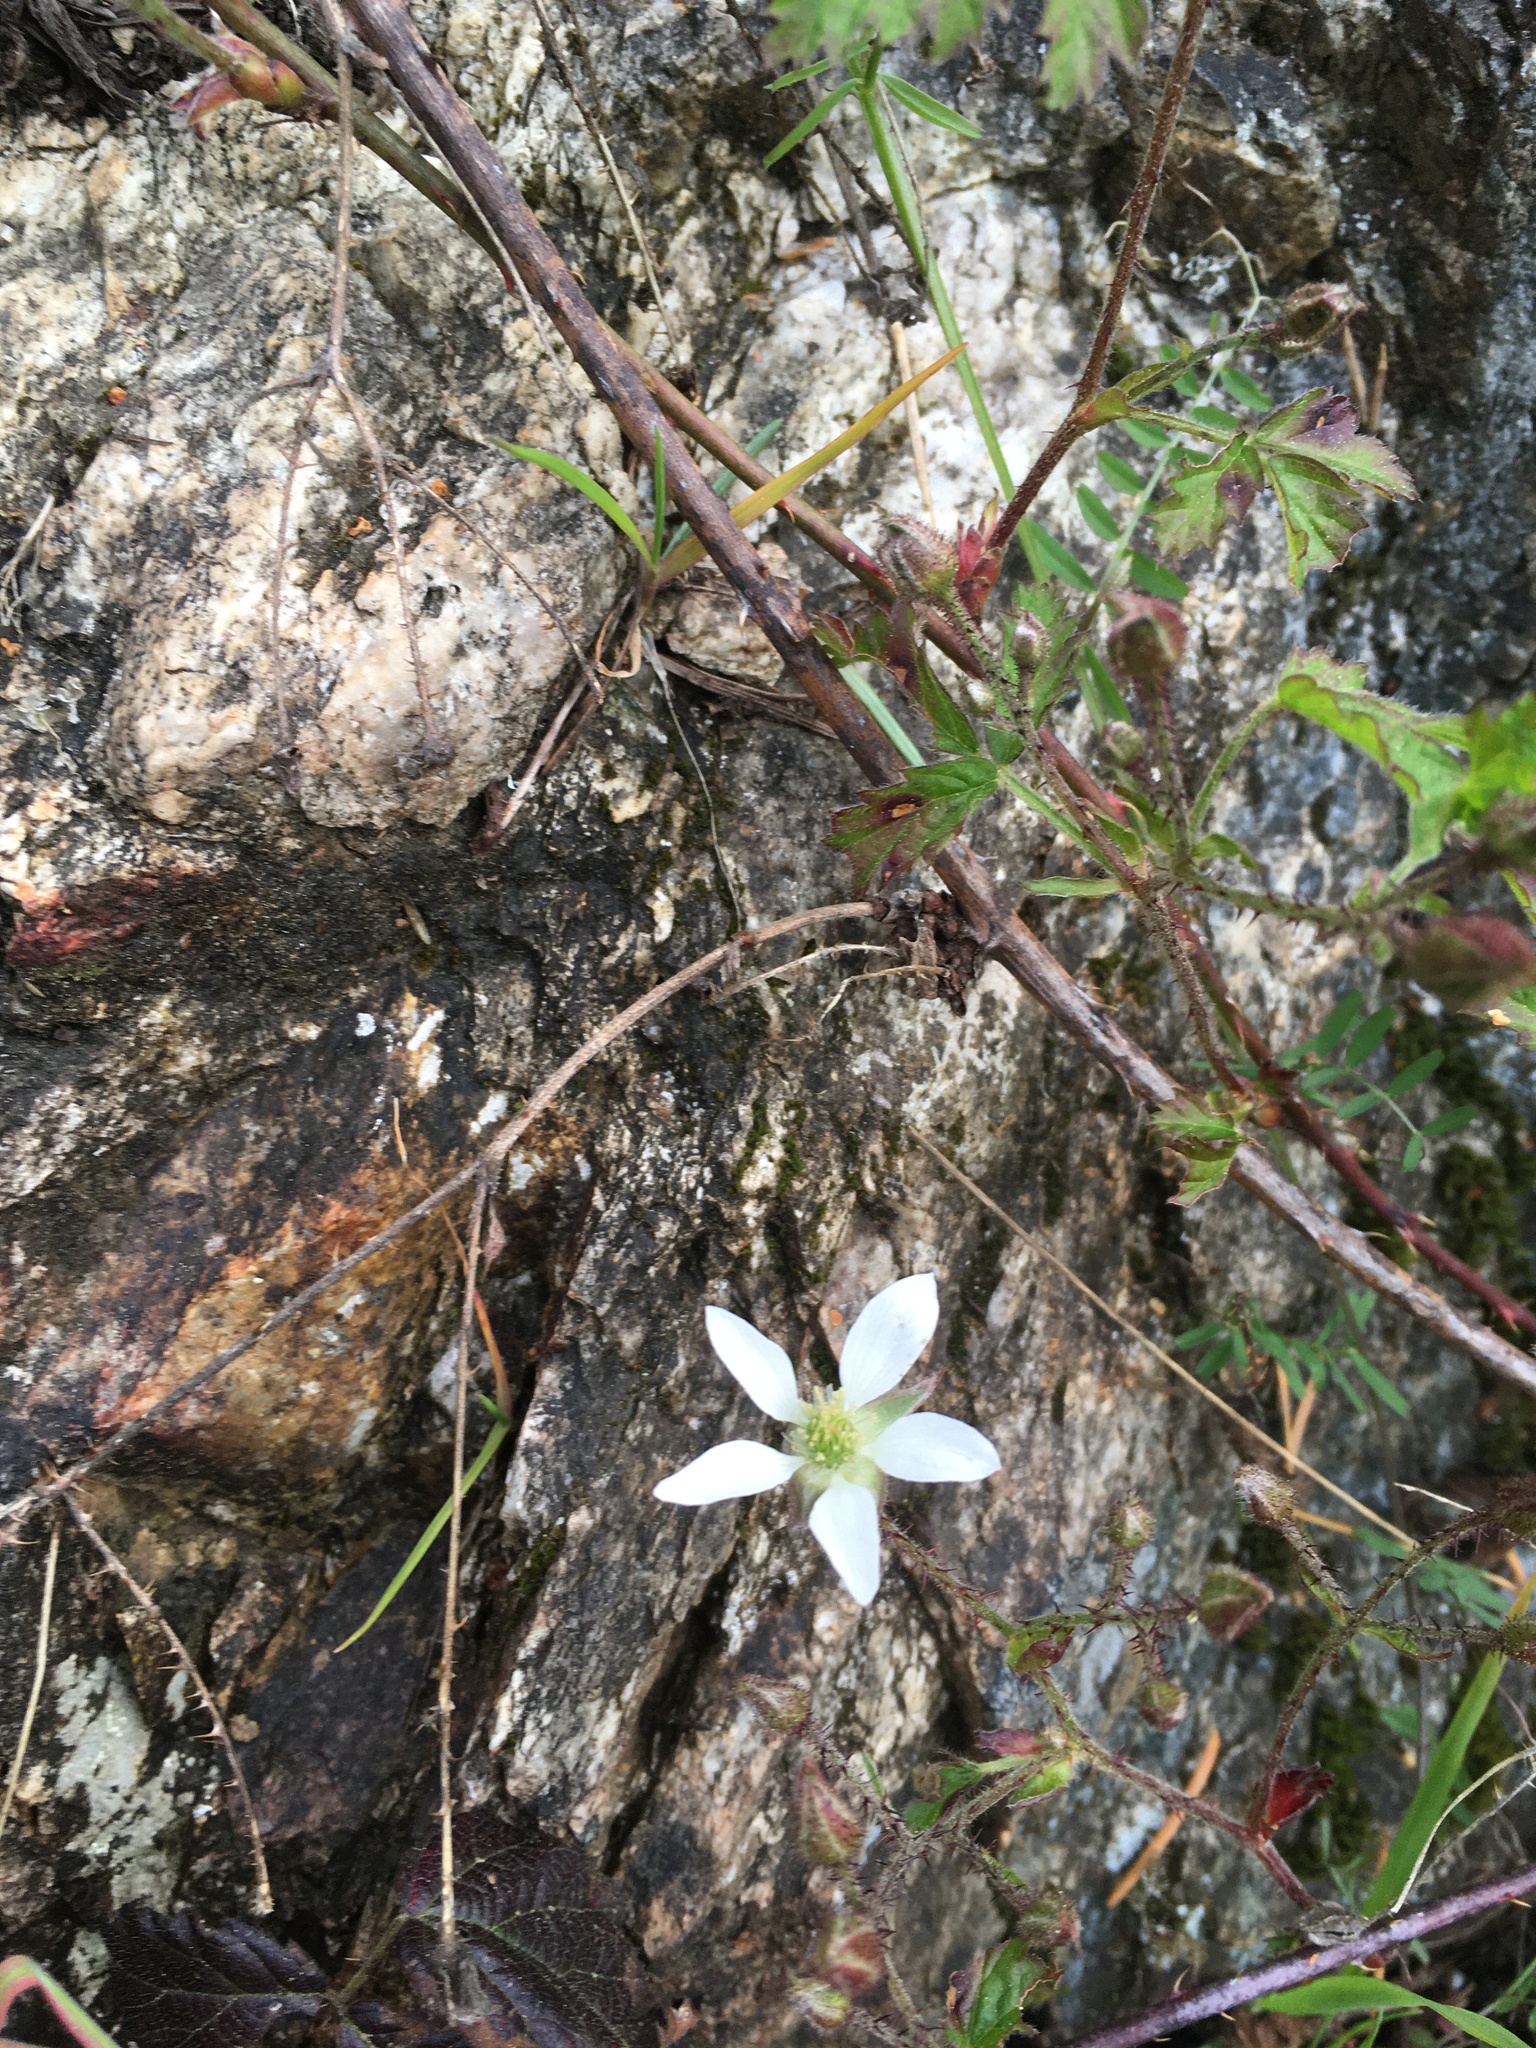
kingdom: Plantae
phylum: Tracheophyta
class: Magnoliopsida
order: Rosales
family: Rosaceae
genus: Rubus
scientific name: Rubus ursinus
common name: Pacific blackberry
